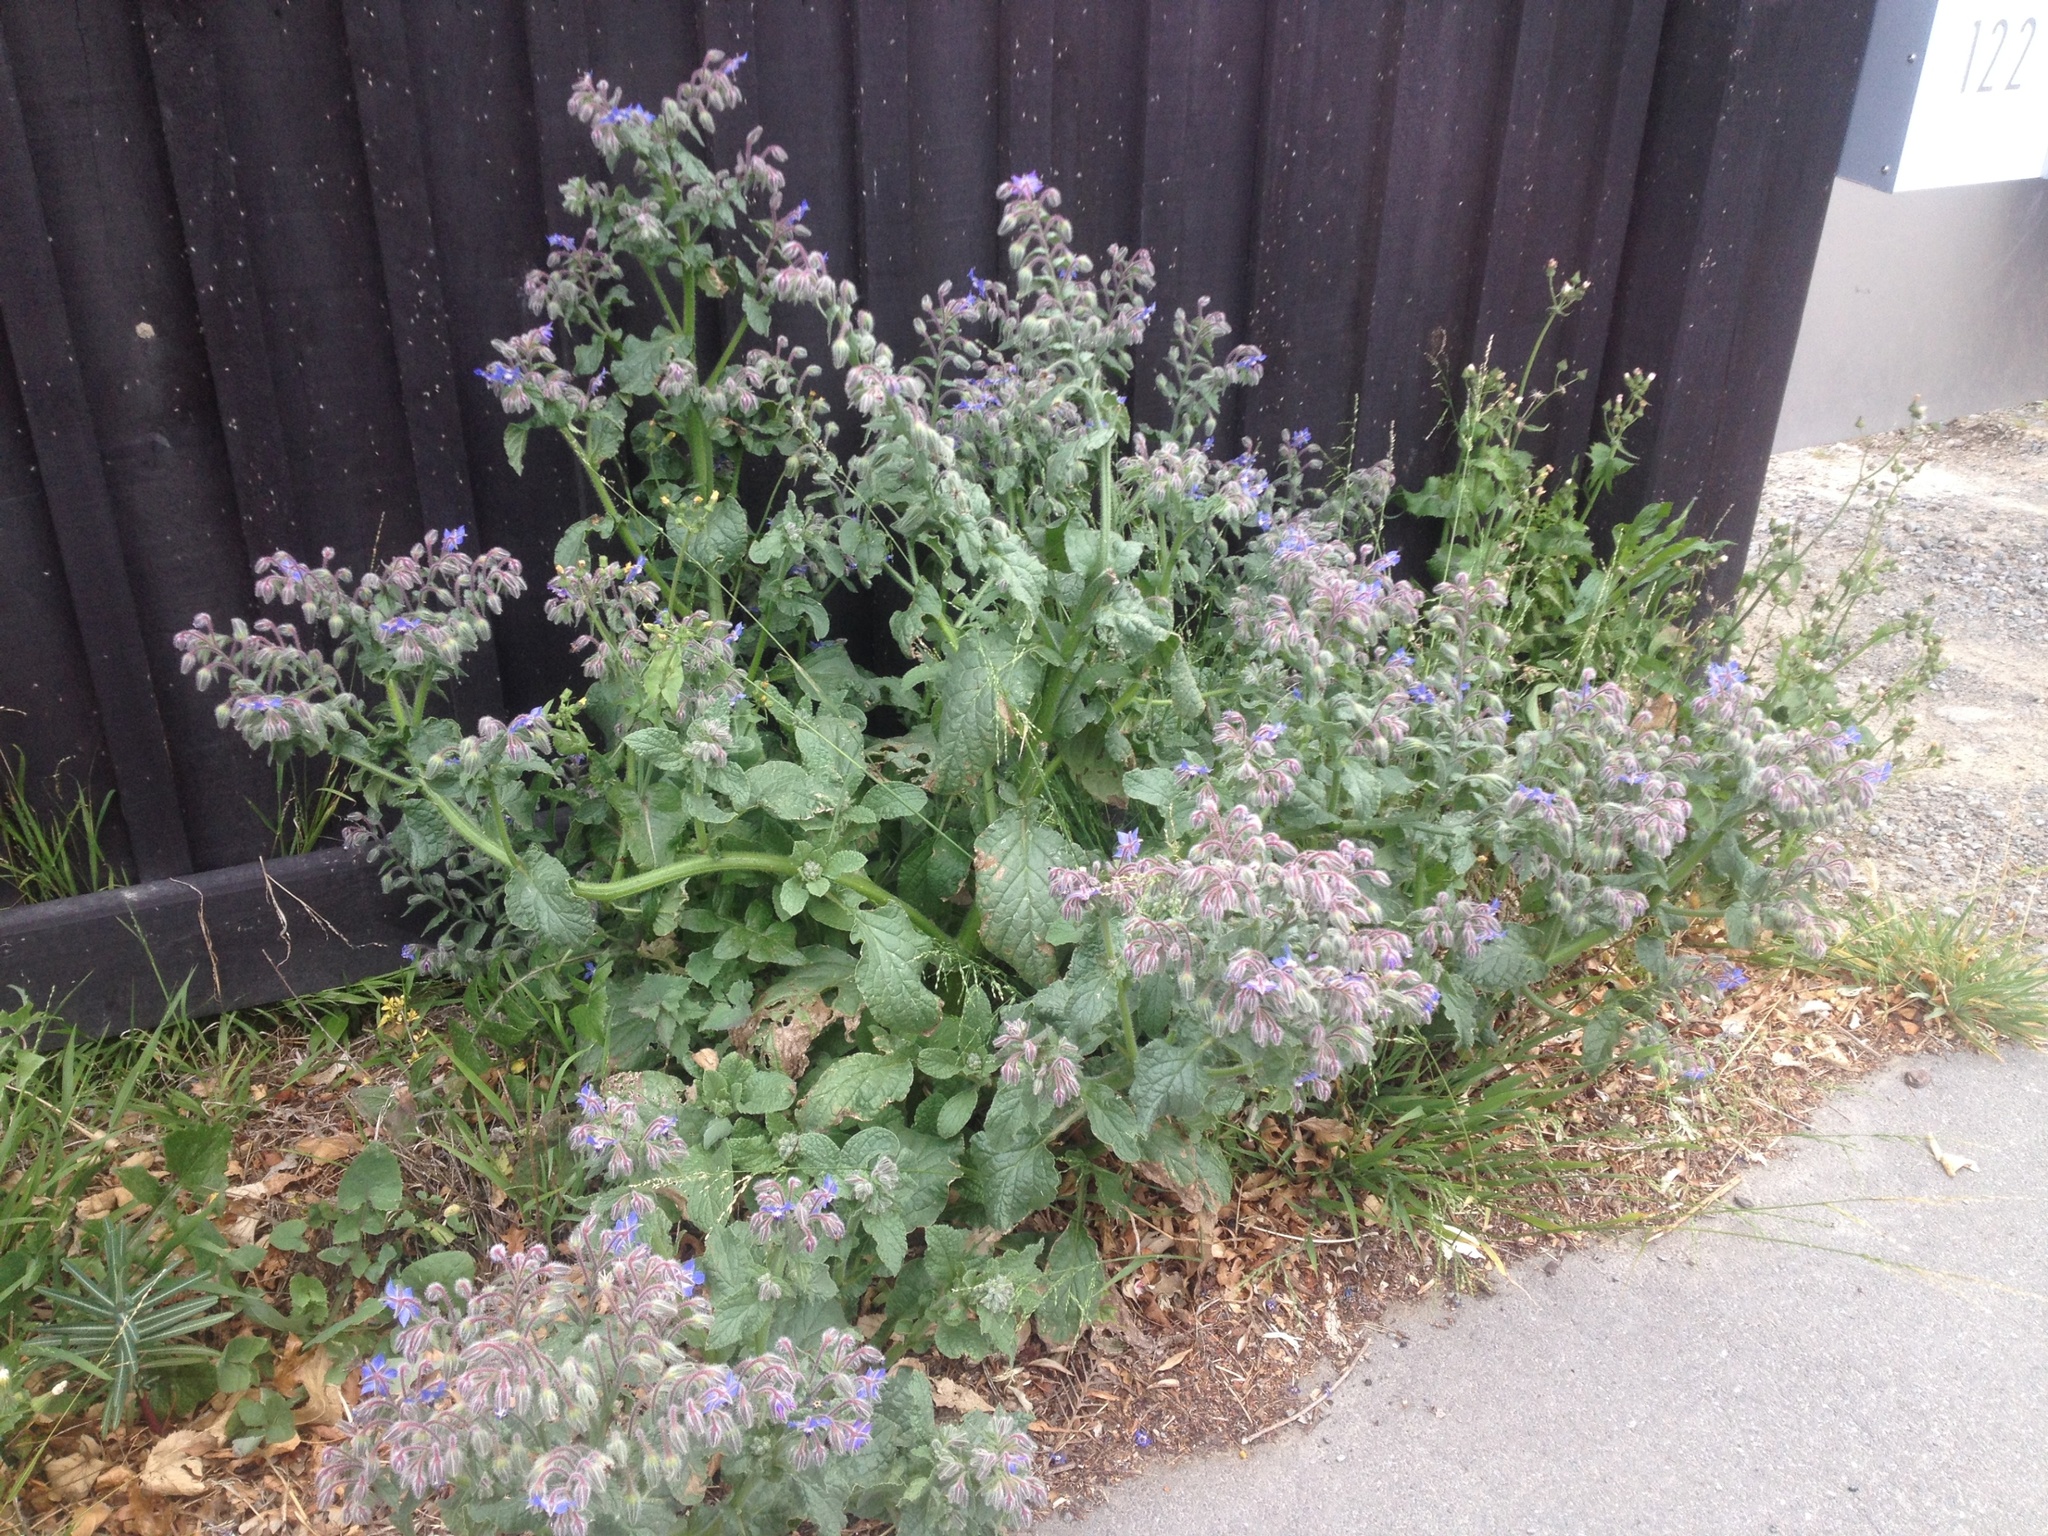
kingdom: Plantae
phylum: Tracheophyta
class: Magnoliopsida
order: Boraginales
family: Boraginaceae
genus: Borago
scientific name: Borago officinalis
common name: Borage
